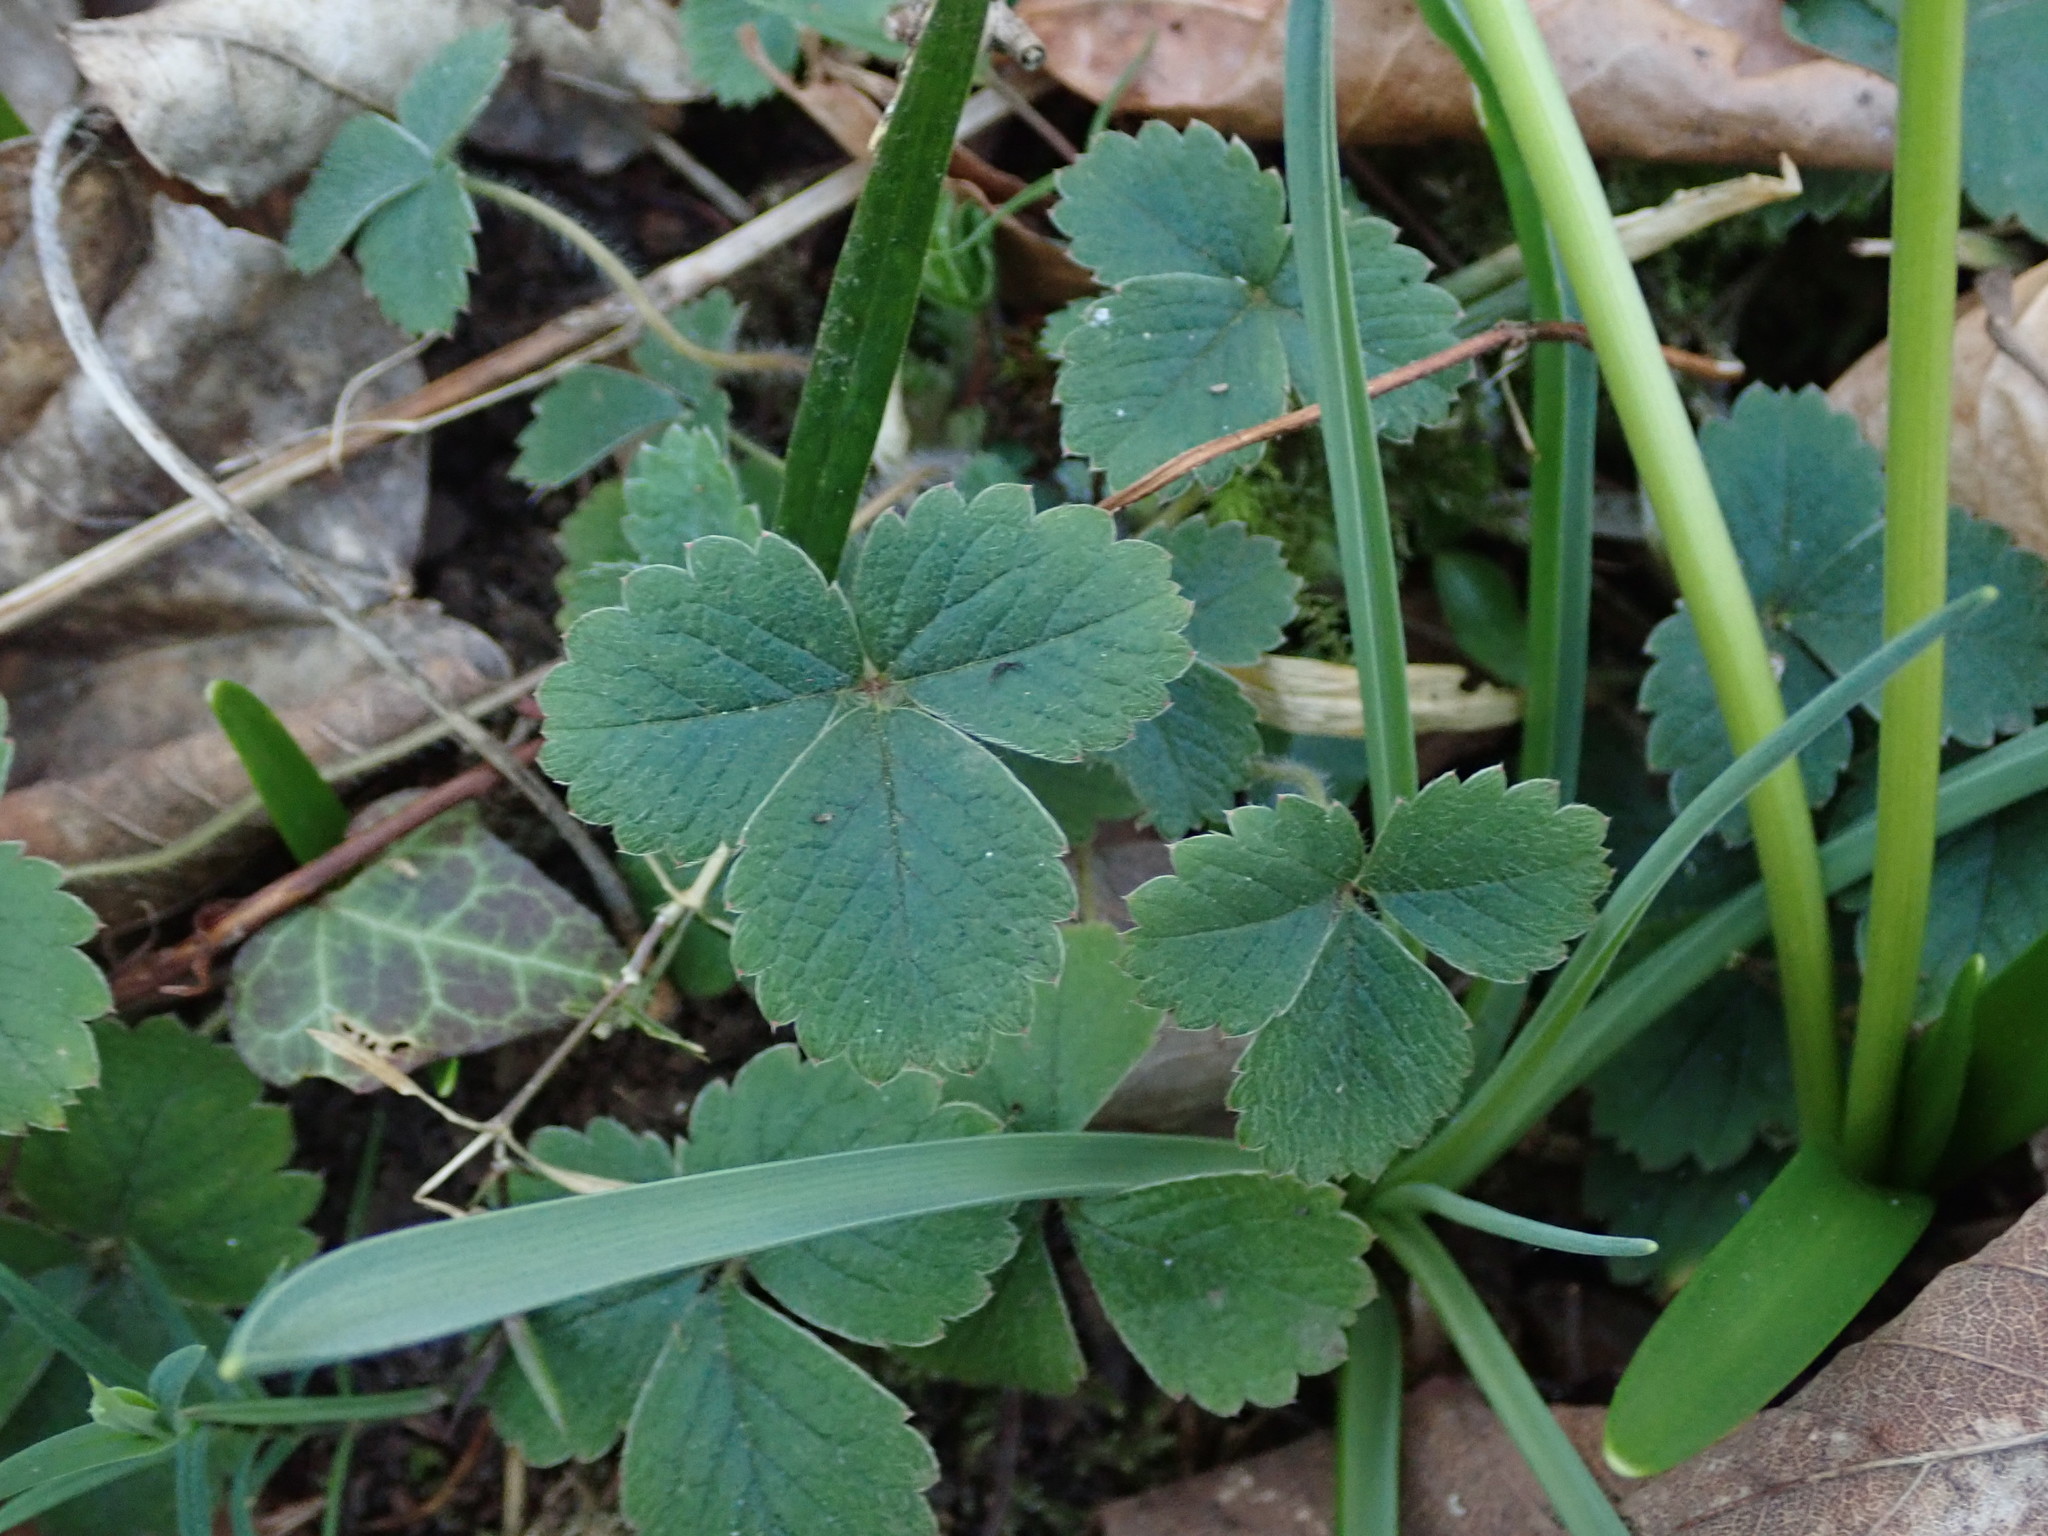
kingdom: Plantae
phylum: Tracheophyta
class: Magnoliopsida
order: Rosales
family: Rosaceae
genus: Potentilla
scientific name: Potentilla sterilis
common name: Barren strawberry
